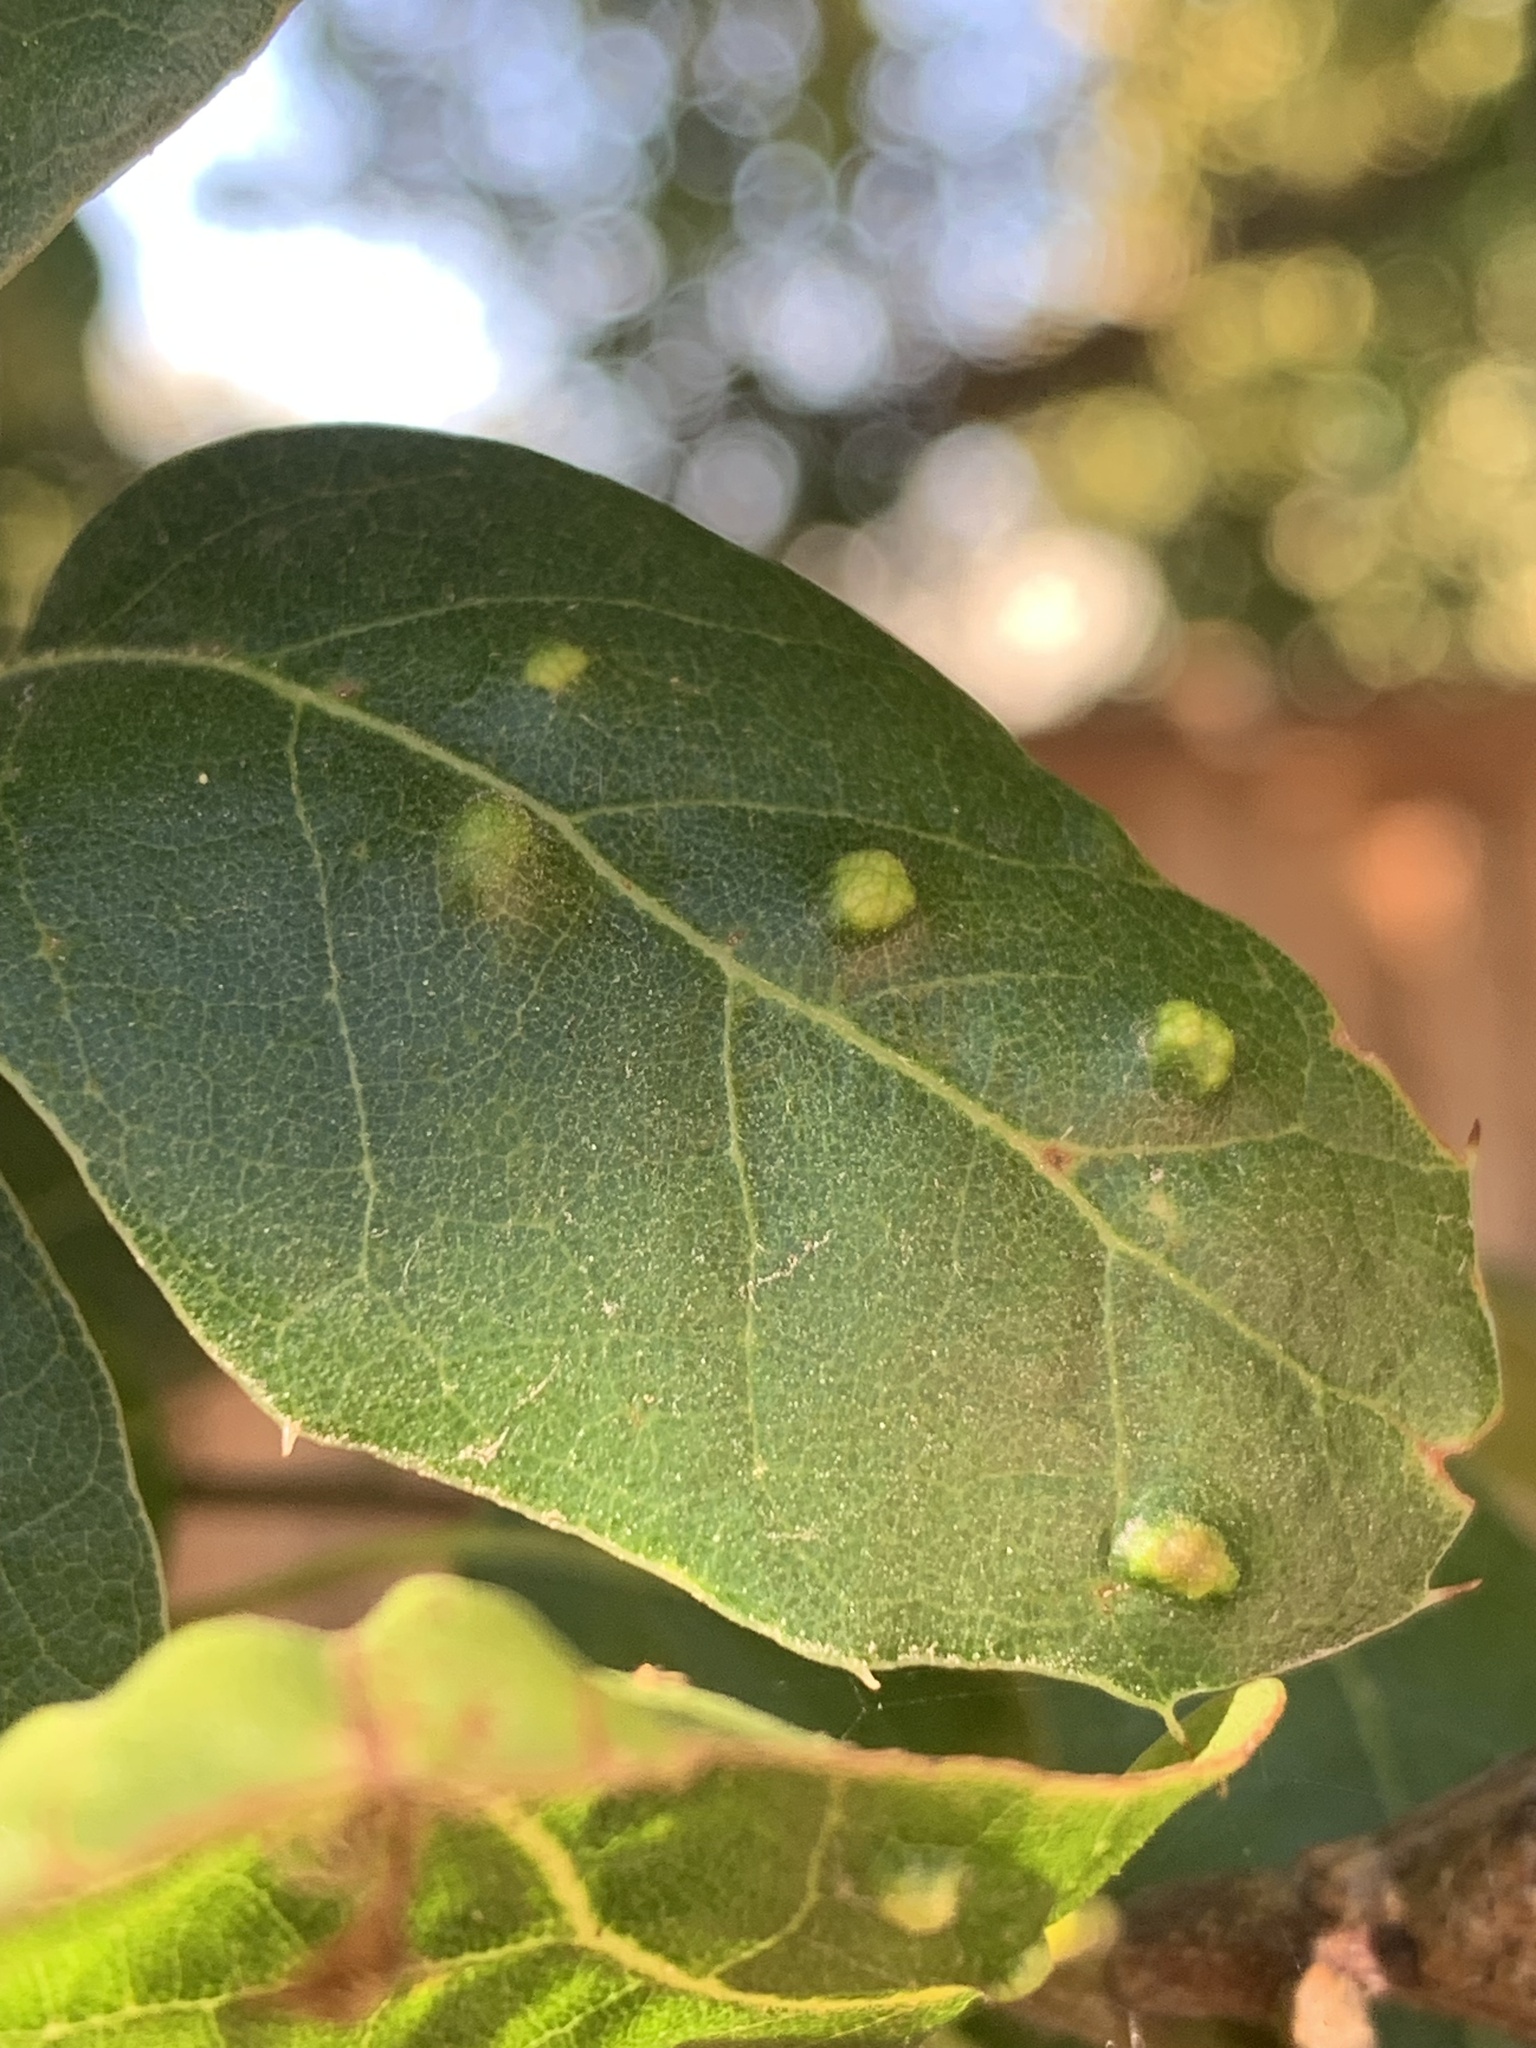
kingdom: Animalia
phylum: Arthropoda
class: Arachnida
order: Trombidiformes
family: Eriophyidae
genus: Aceria
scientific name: Aceria
